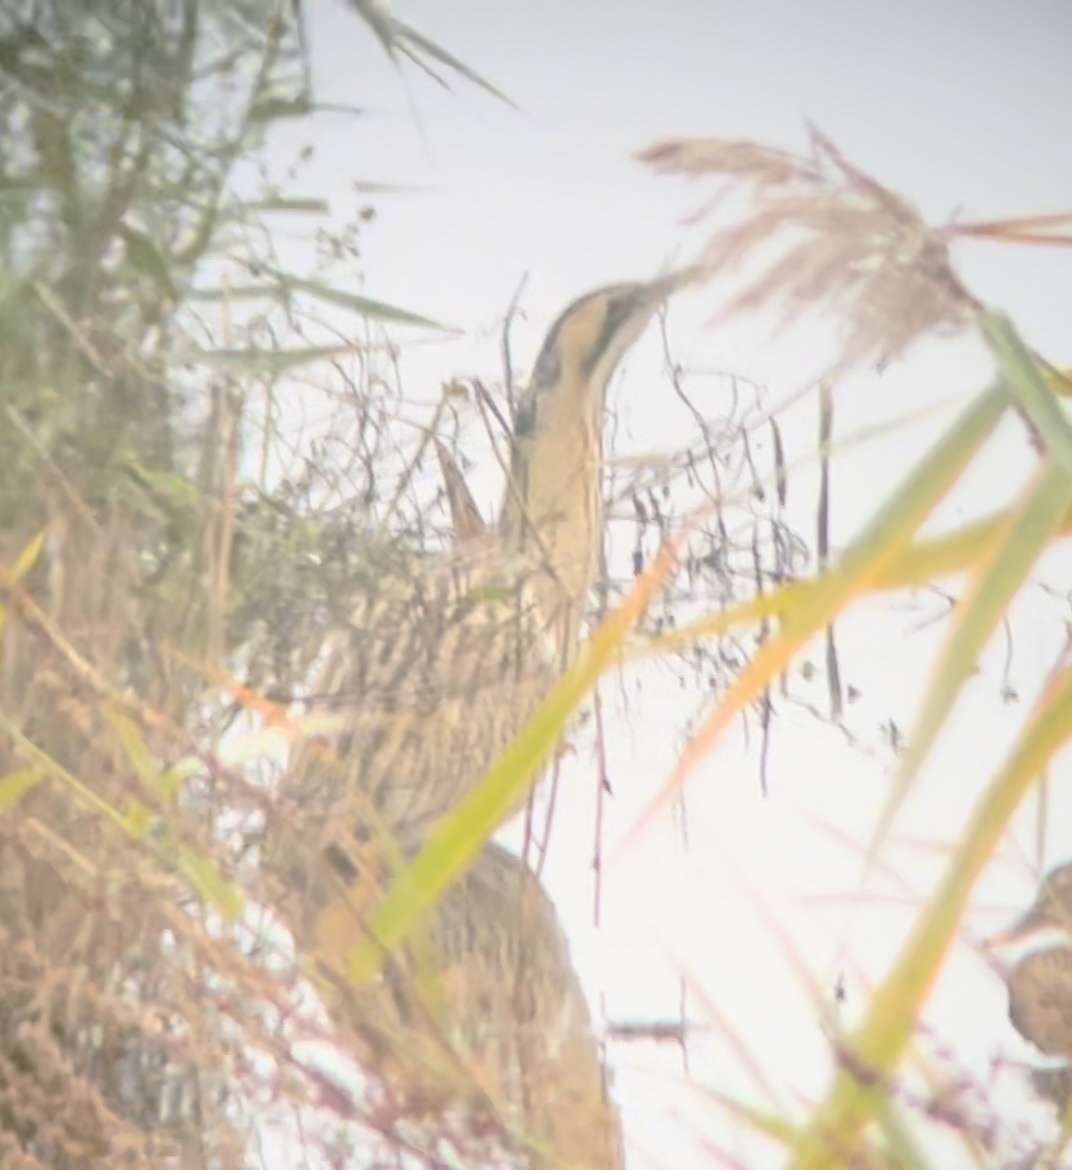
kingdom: Animalia
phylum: Chordata
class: Aves
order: Pelecaniformes
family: Ardeidae
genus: Botaurus
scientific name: Botaurus stellaris
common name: Eurasian bittern
